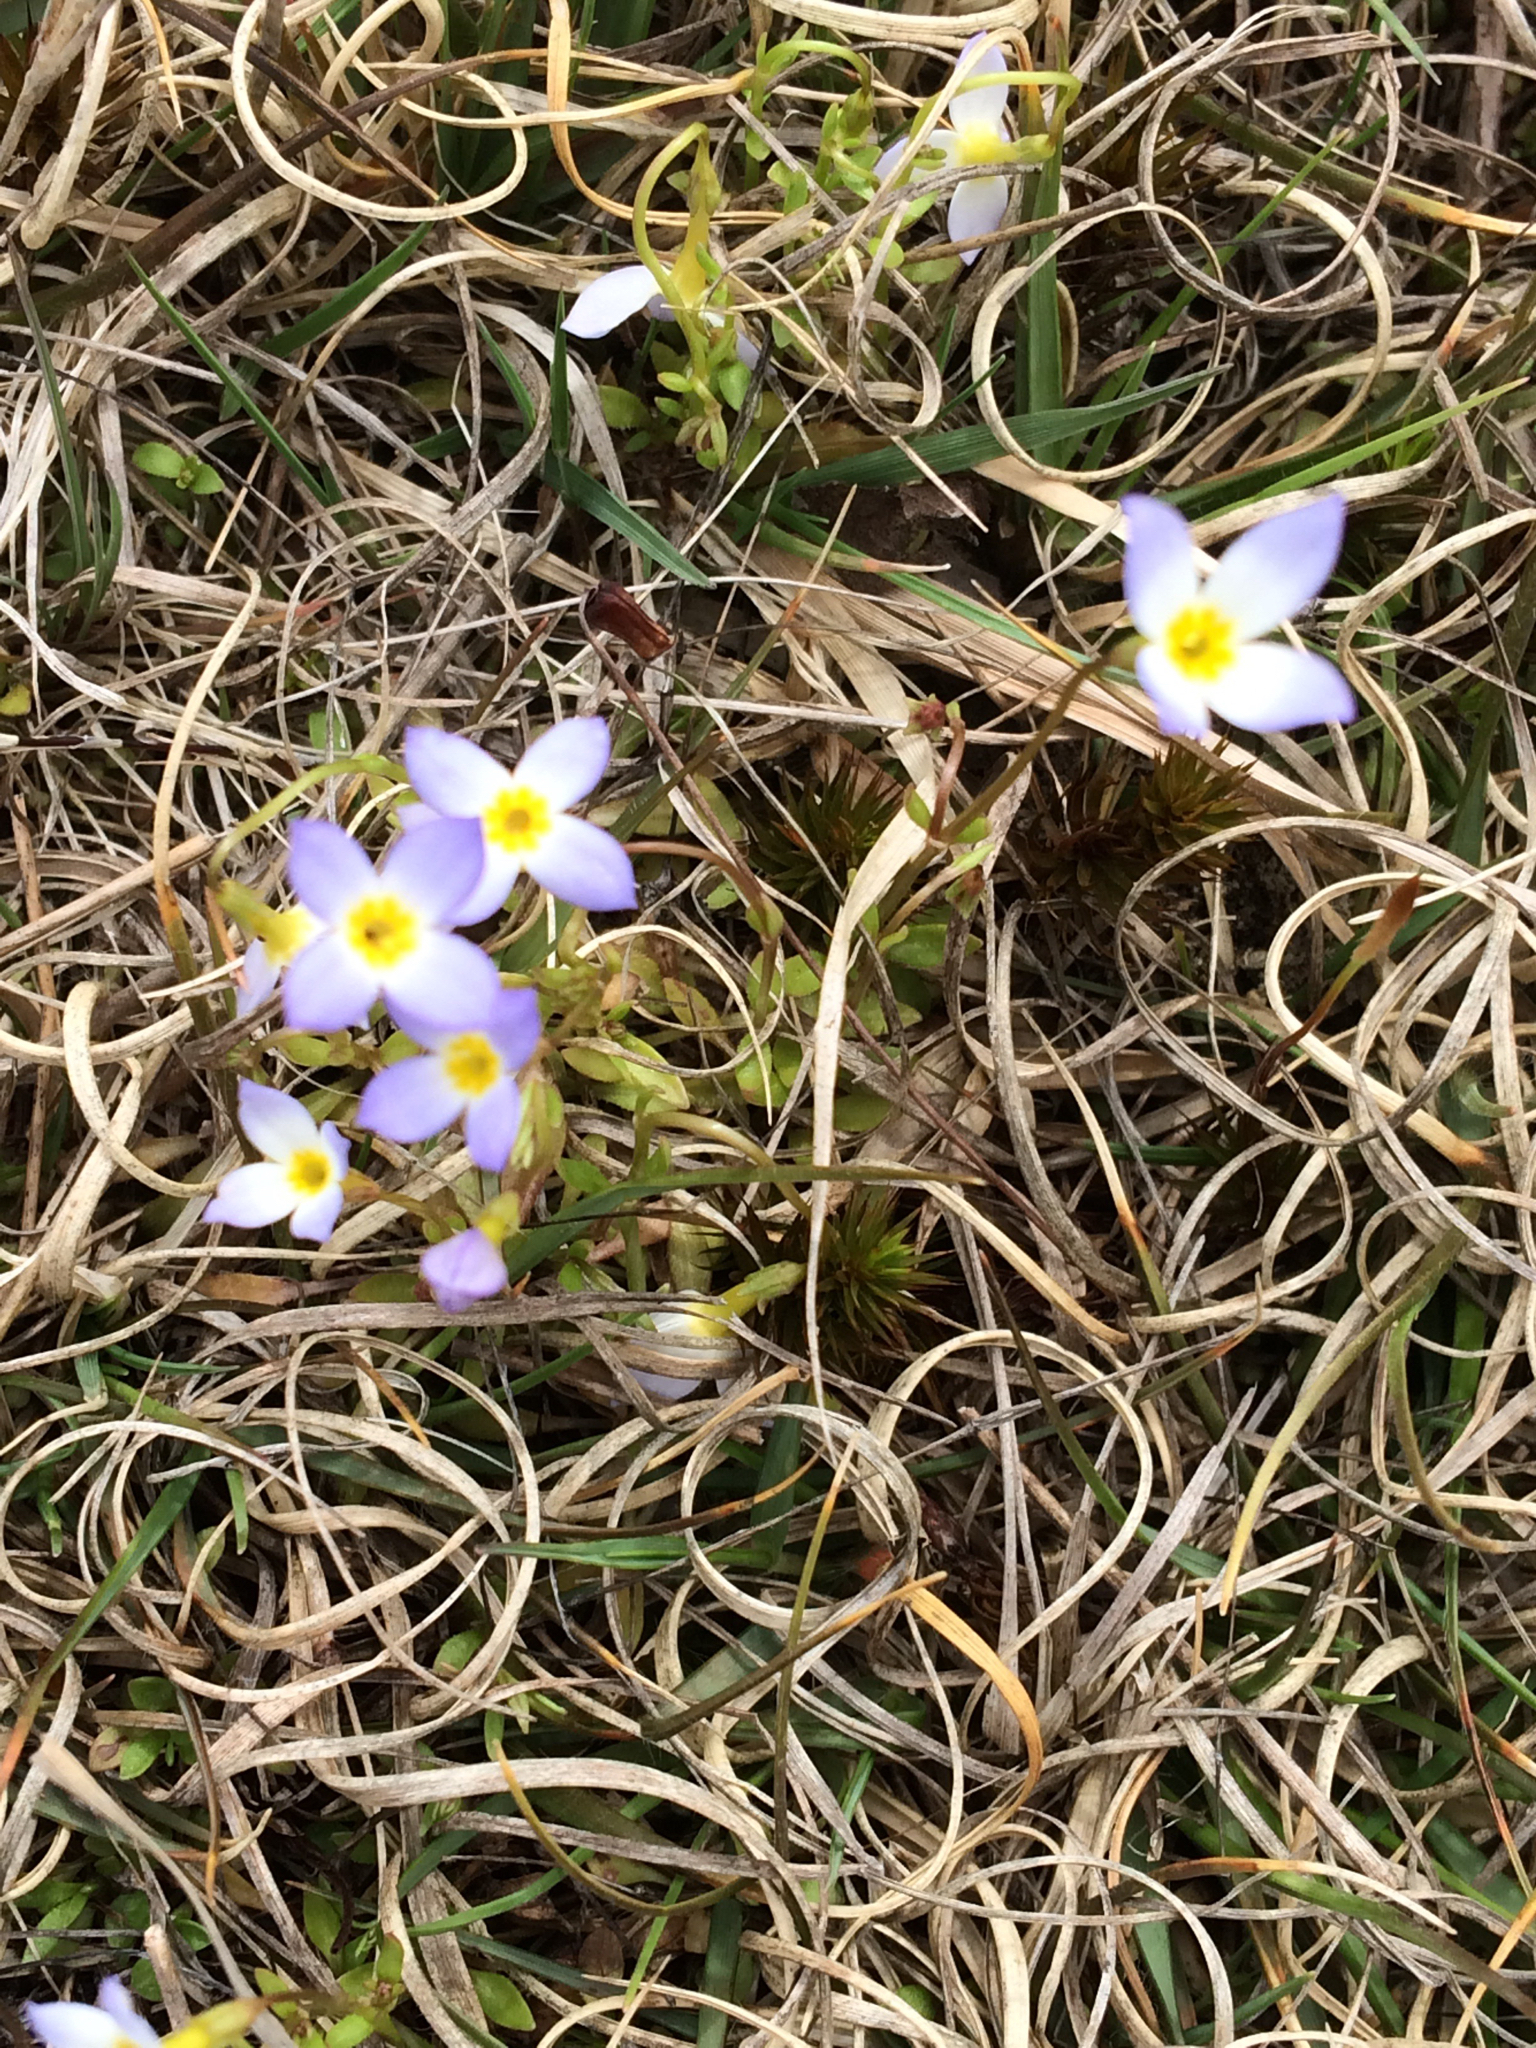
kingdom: Plantae
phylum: Tracheophyta
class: Magnoliopsida
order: Gentianales
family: Rubiaceae
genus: Houstonia
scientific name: Houstonia caerulea
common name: Bluets
